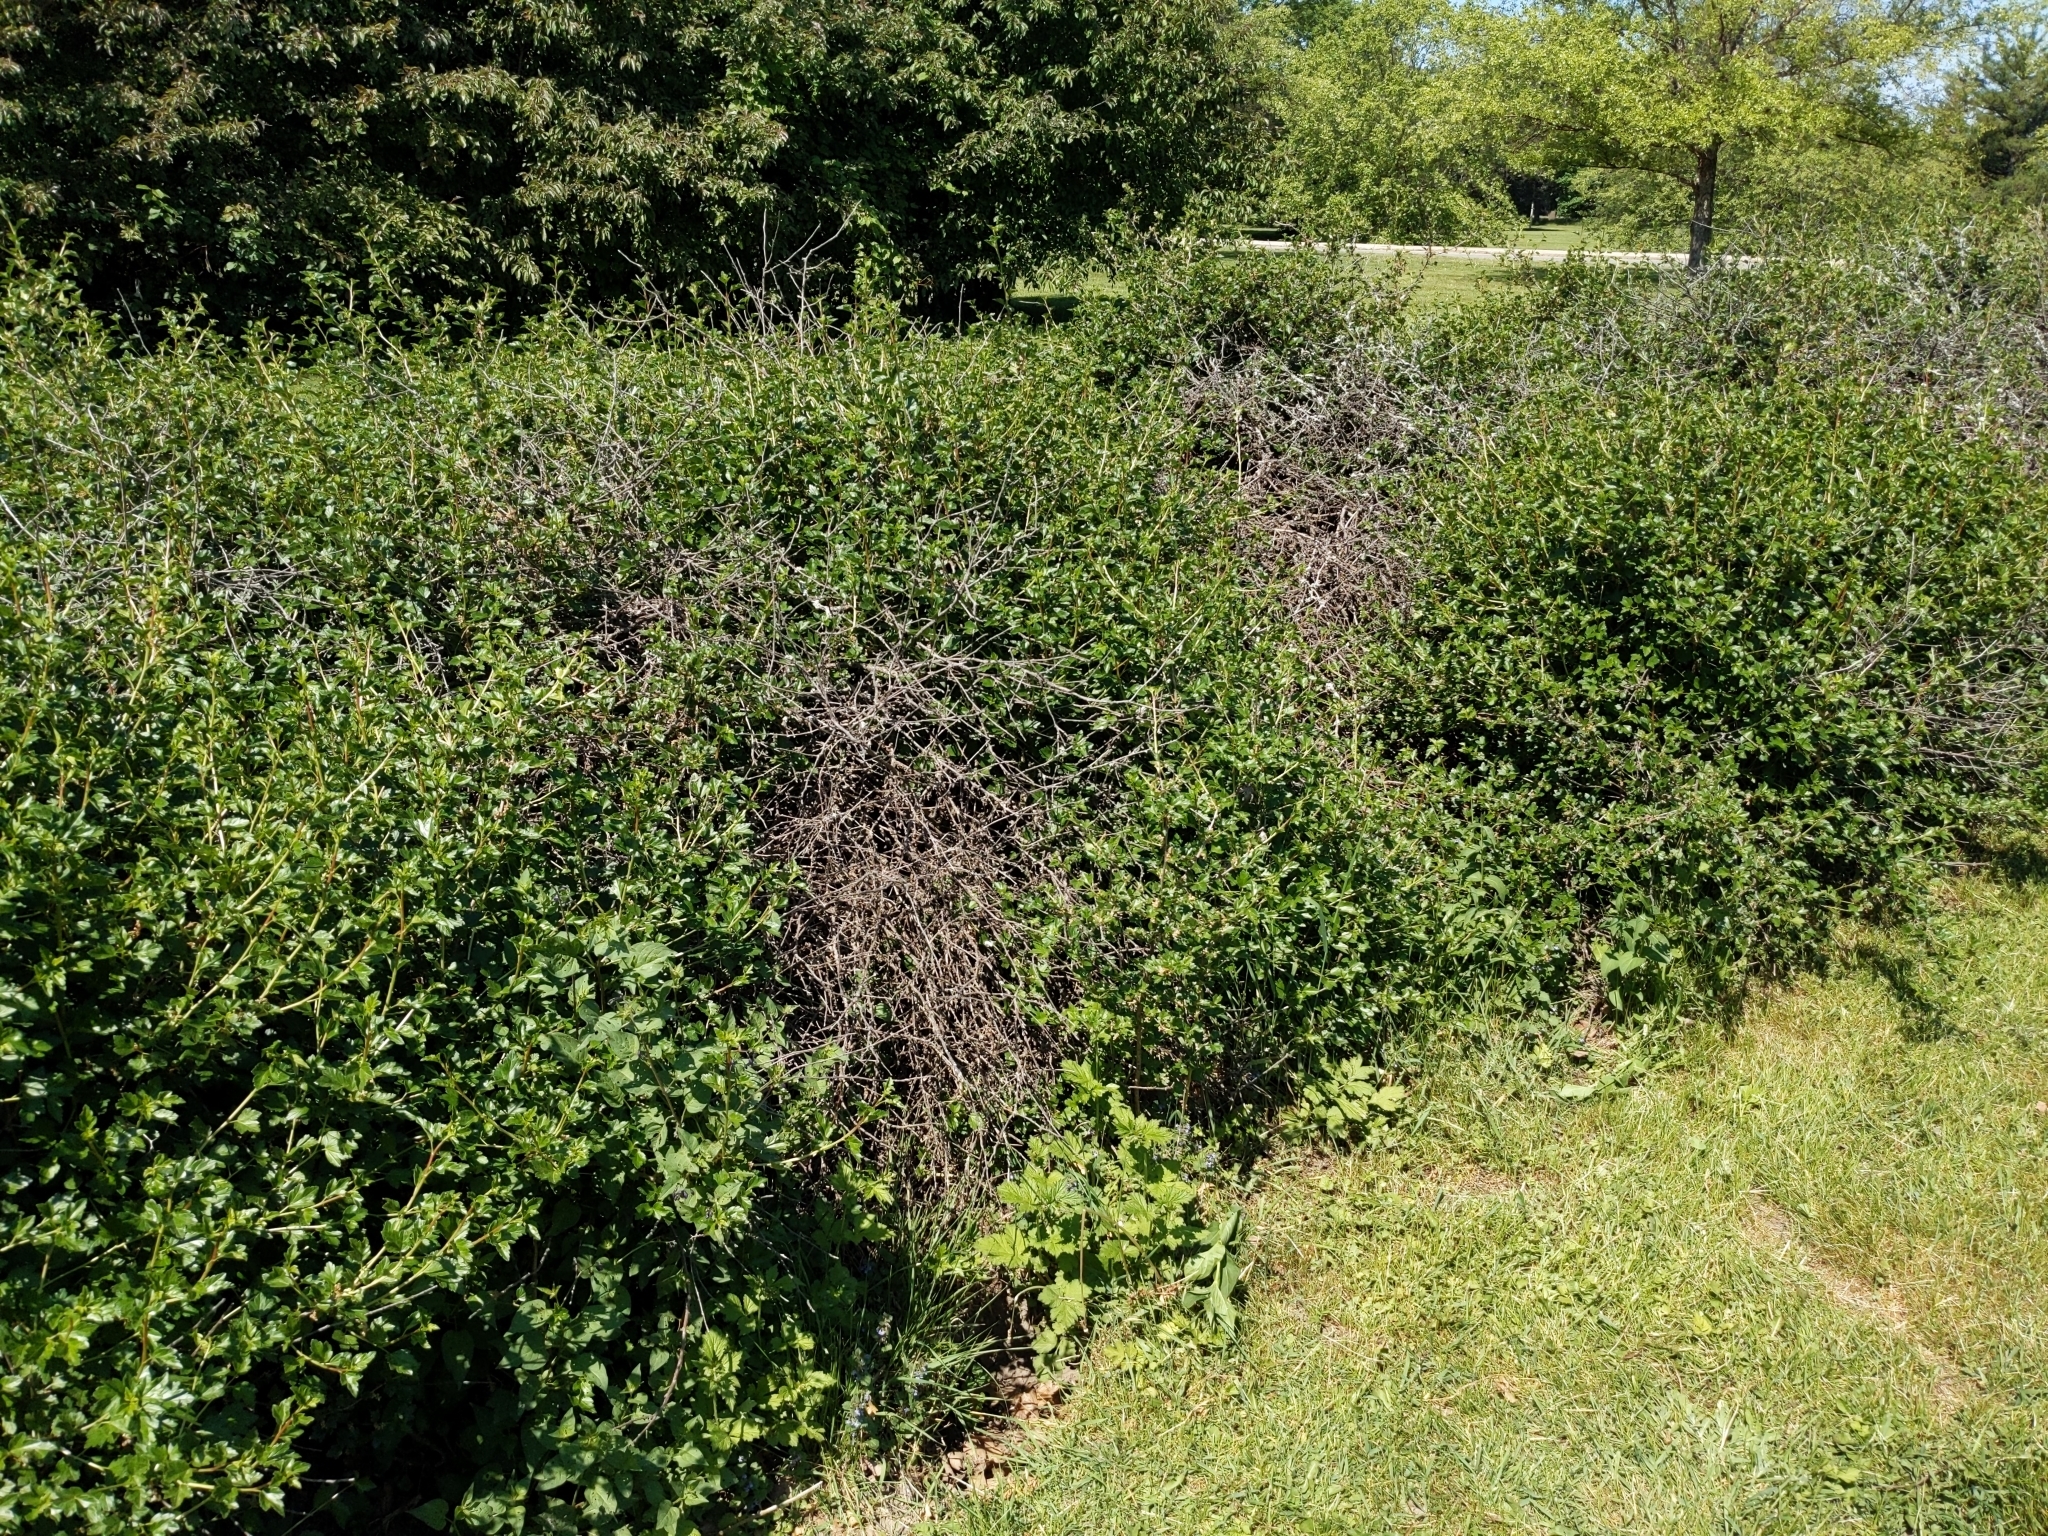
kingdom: Plantae
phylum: Tracheophyta
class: Magnoliopsida
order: Solanales
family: Solanaceae
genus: Solanum
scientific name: Solanum dulcamara
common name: Climbing nightshade
